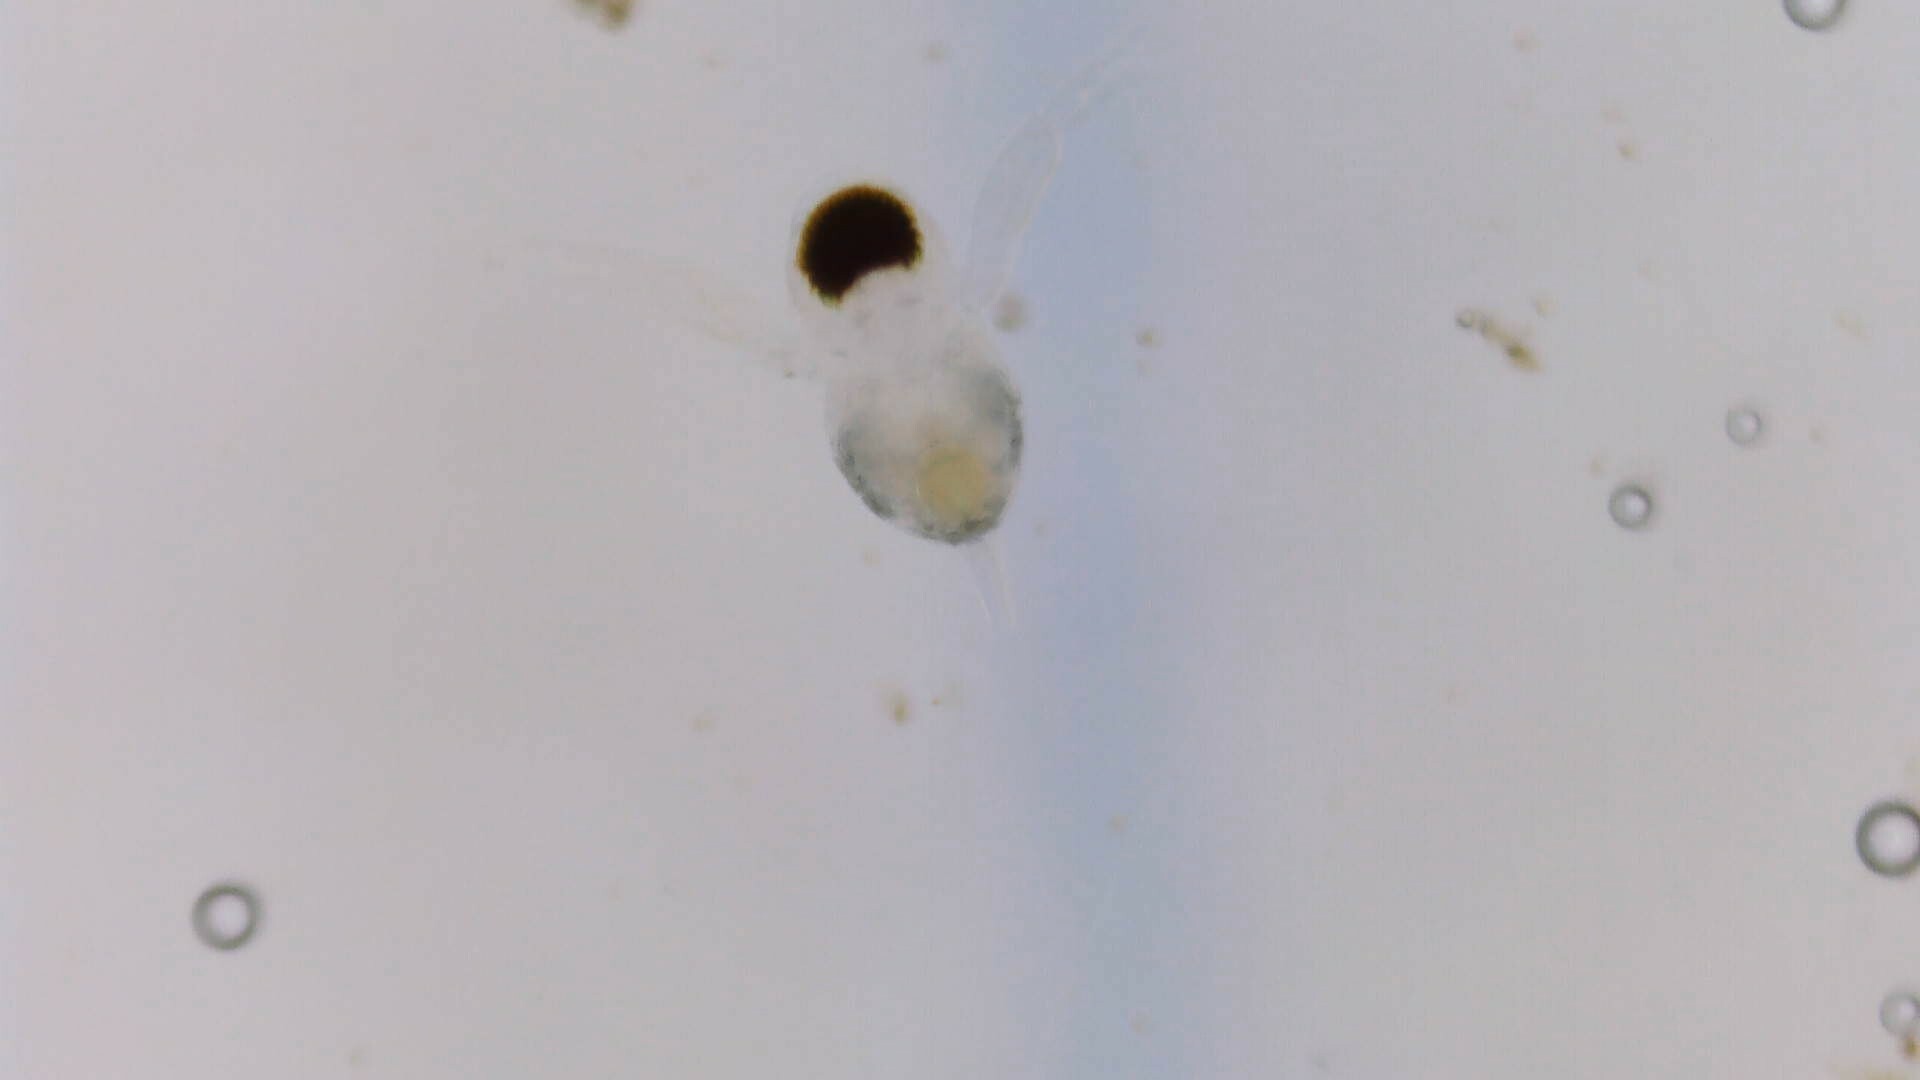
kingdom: Animalia
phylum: Arthropoda
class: Branchiopoda
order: Diplostraca
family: Polyphemidae
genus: Polyphemus
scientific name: Polyphemus pediculus
